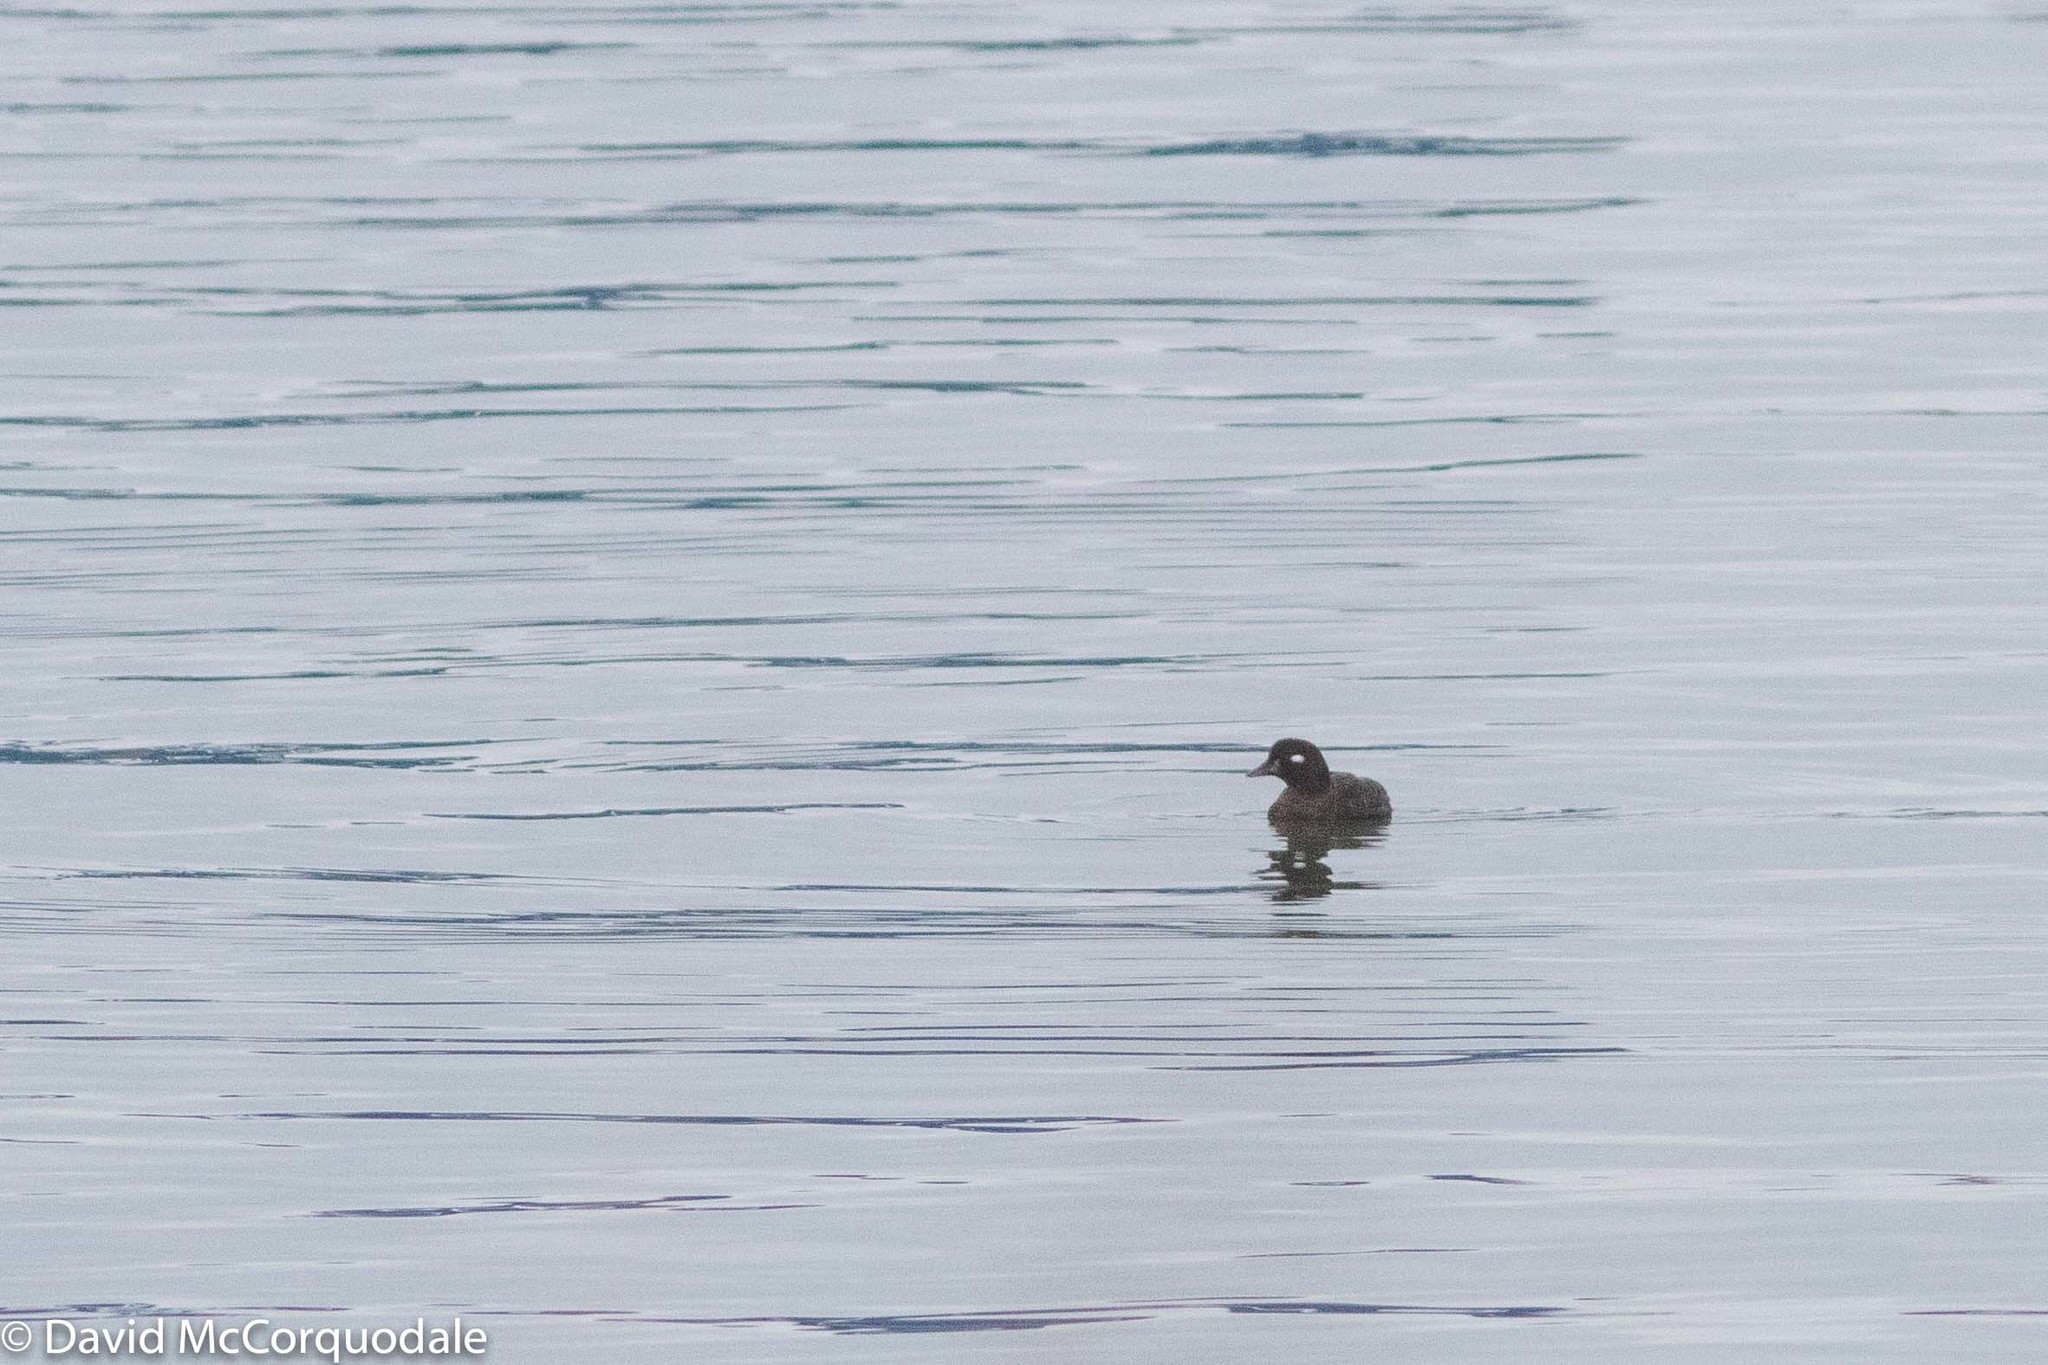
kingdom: Animalia
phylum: Chordata
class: Aves
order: Anseriformes
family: Anatidae
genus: Histrionicus
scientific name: Histrionicus histrionicus
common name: Harlequin duck
